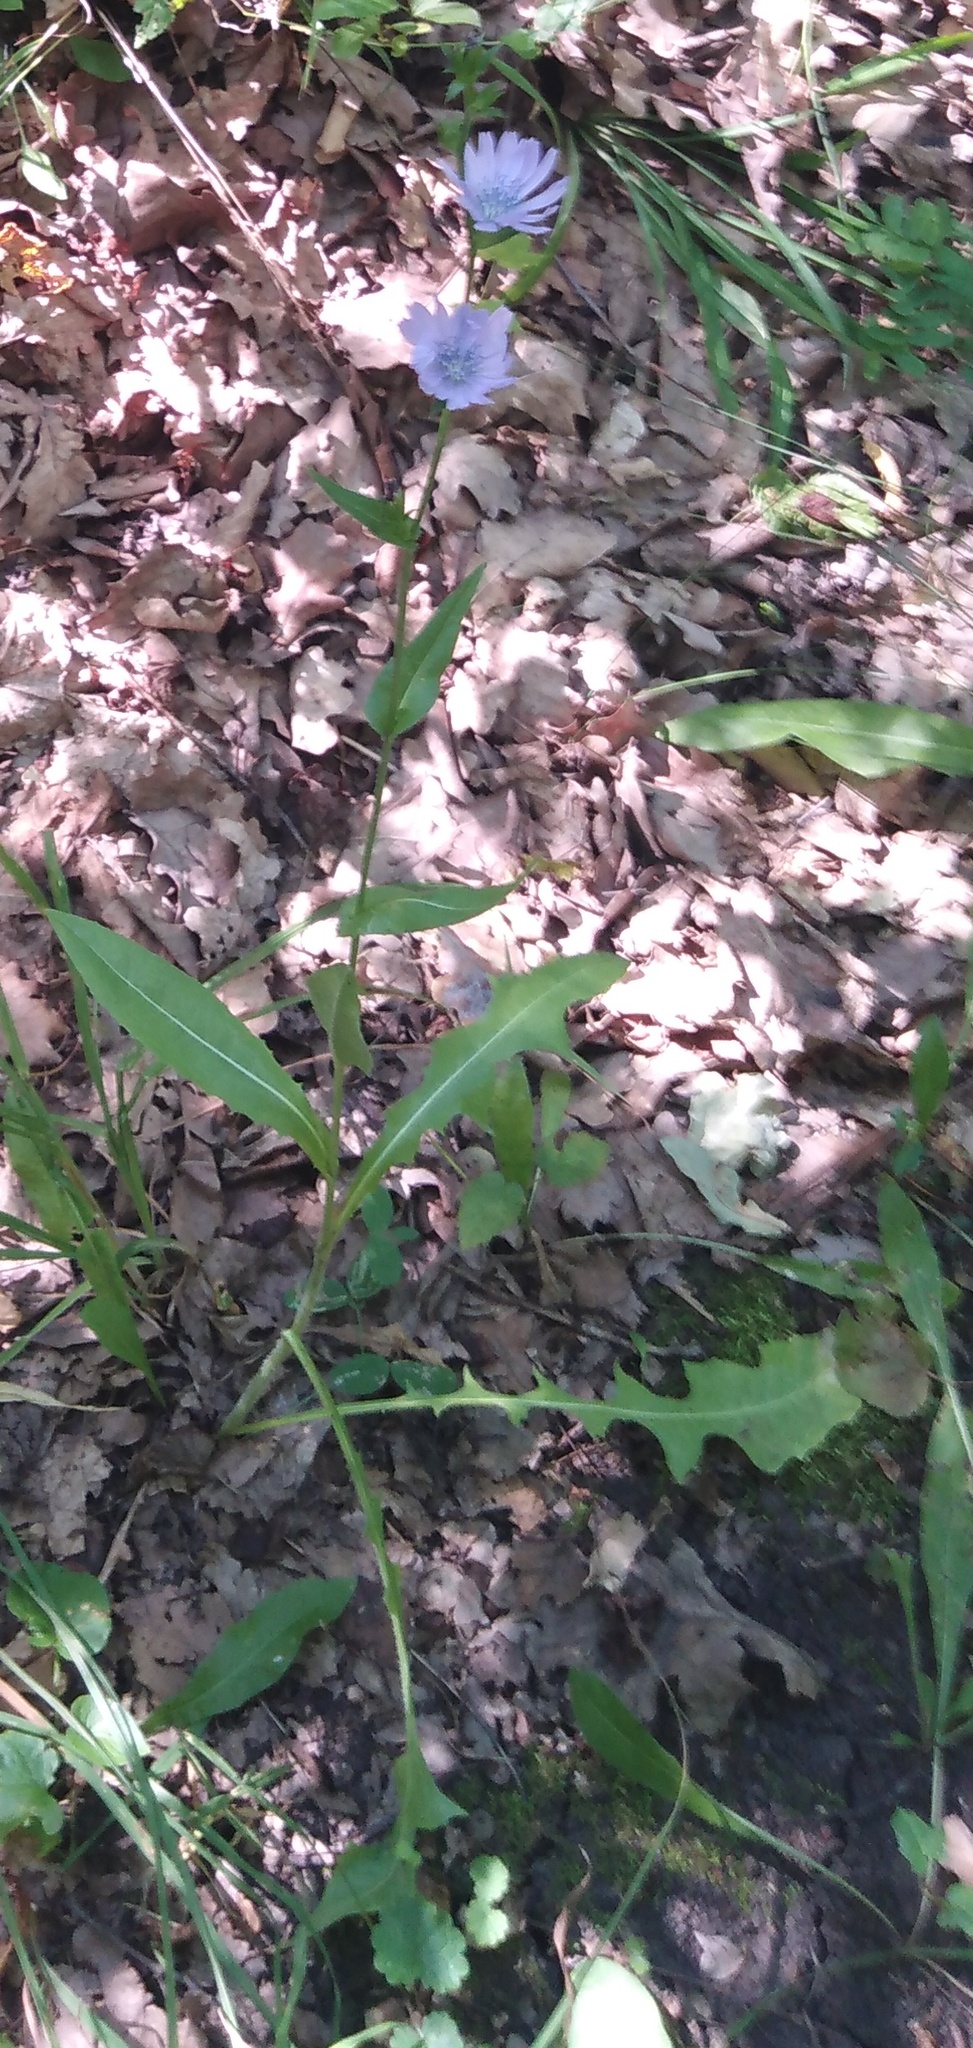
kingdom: Plantae
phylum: Tracheophyta
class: Magnoliopsida
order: Asterales
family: Asteraceae
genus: Cichorium
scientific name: Cichorium intybus
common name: Chicory
